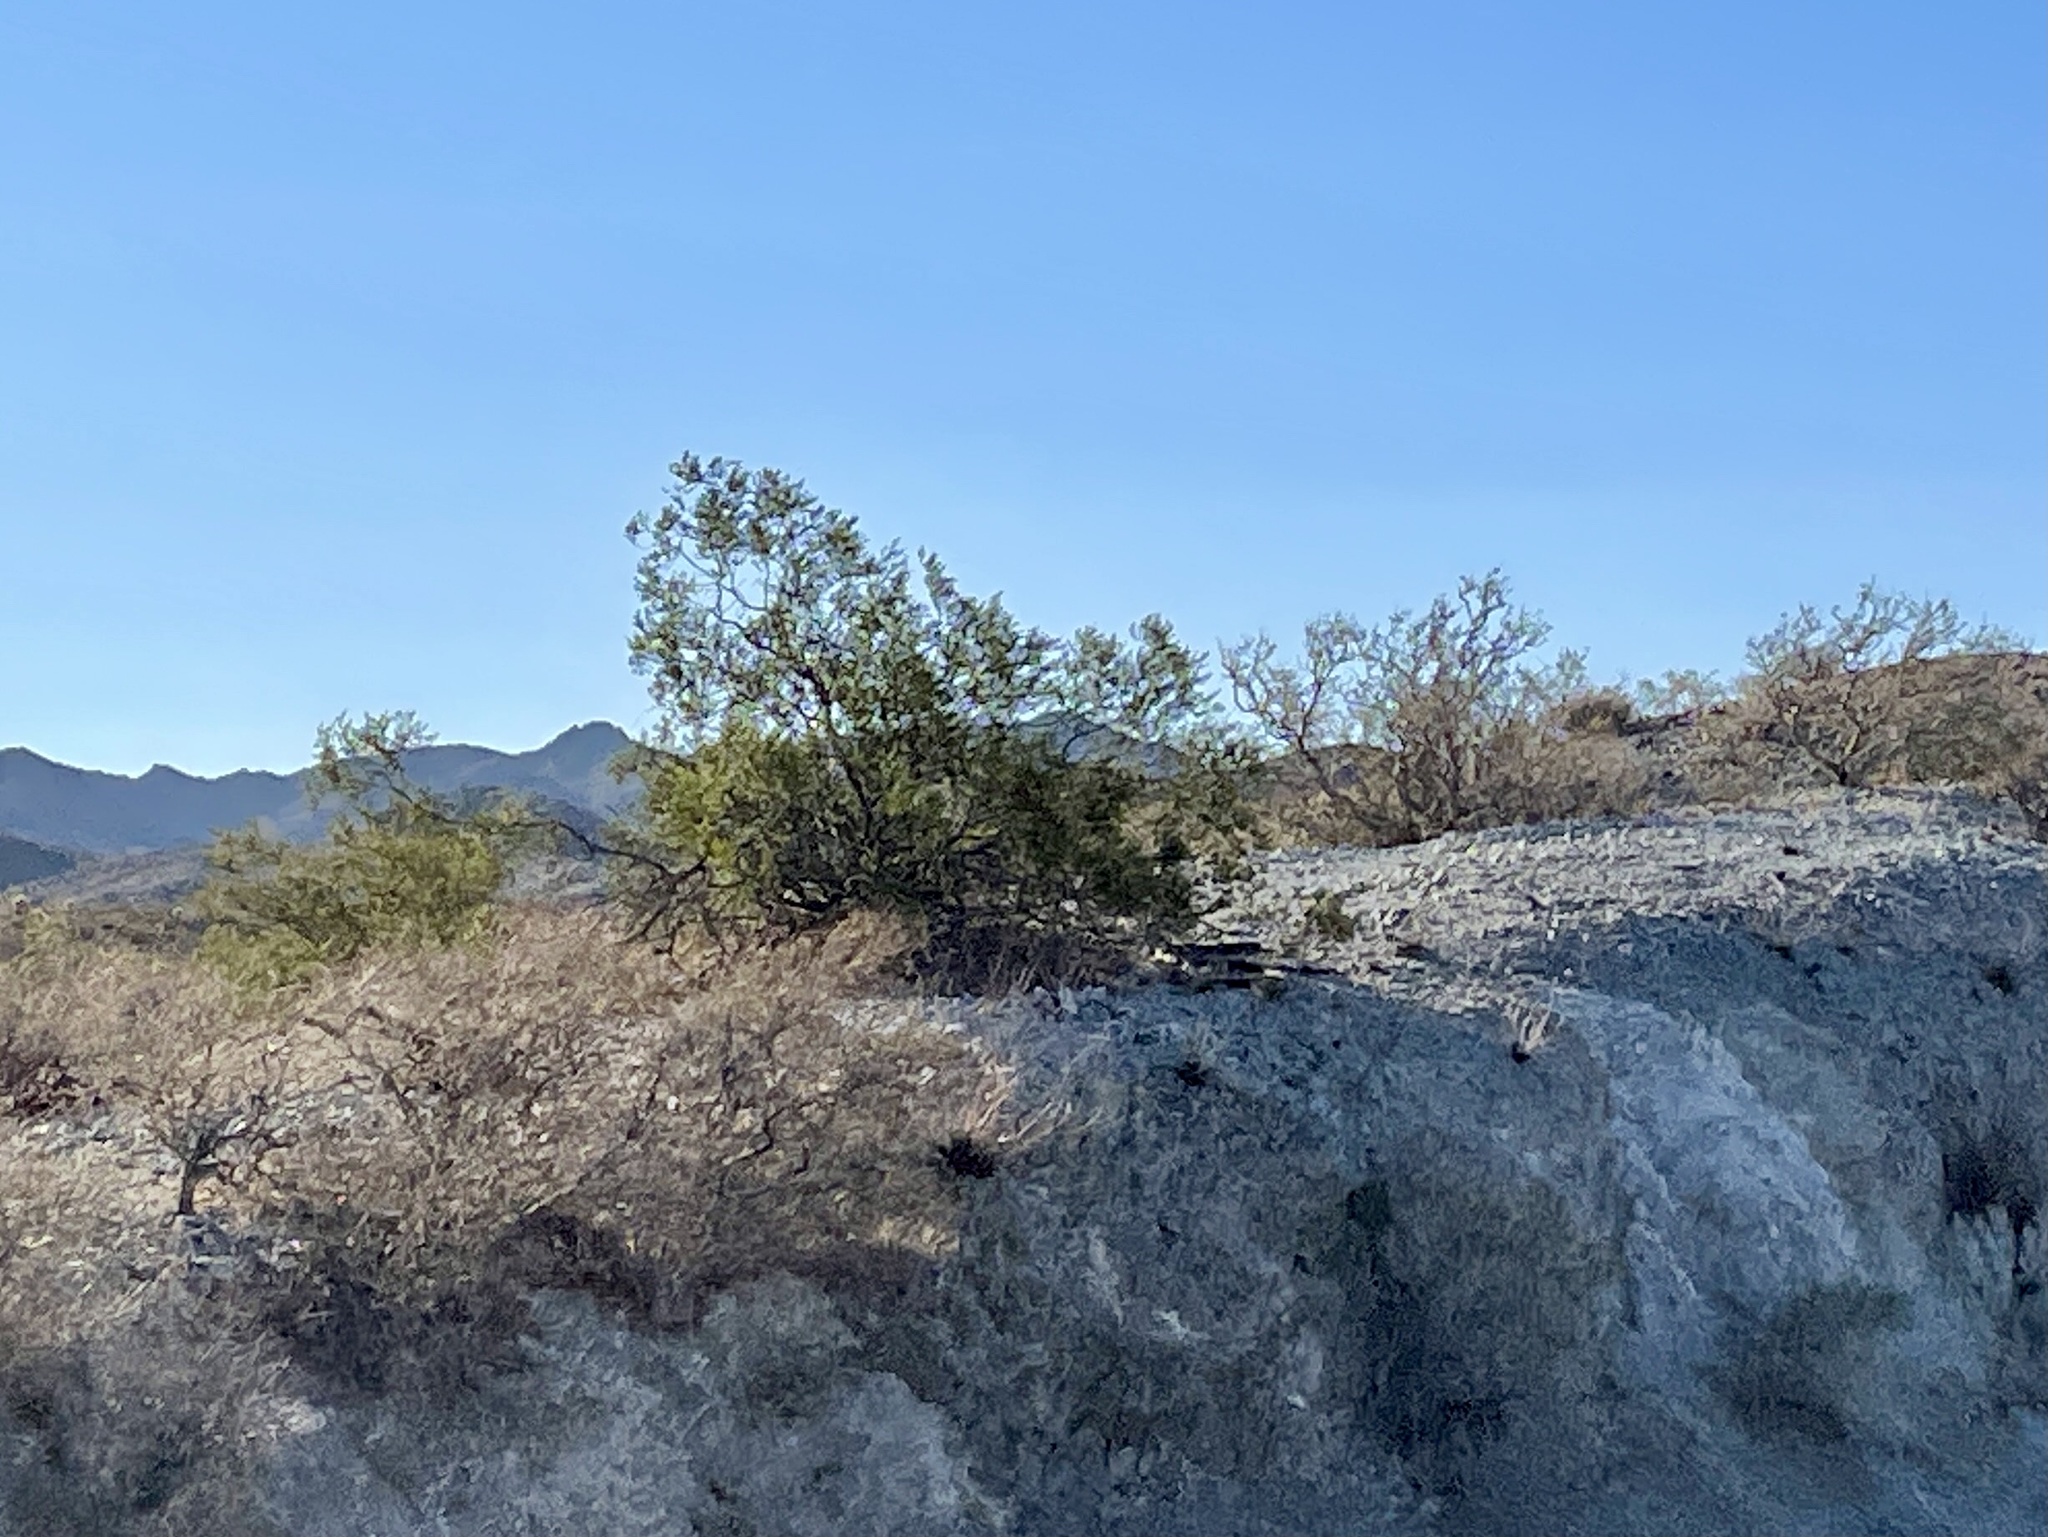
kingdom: Plantae
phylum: Tracheophyta
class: Magnoliopsida
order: Zygophyllales
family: Zygophyllaceae
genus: Larrea
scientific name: Larrea tridentata
